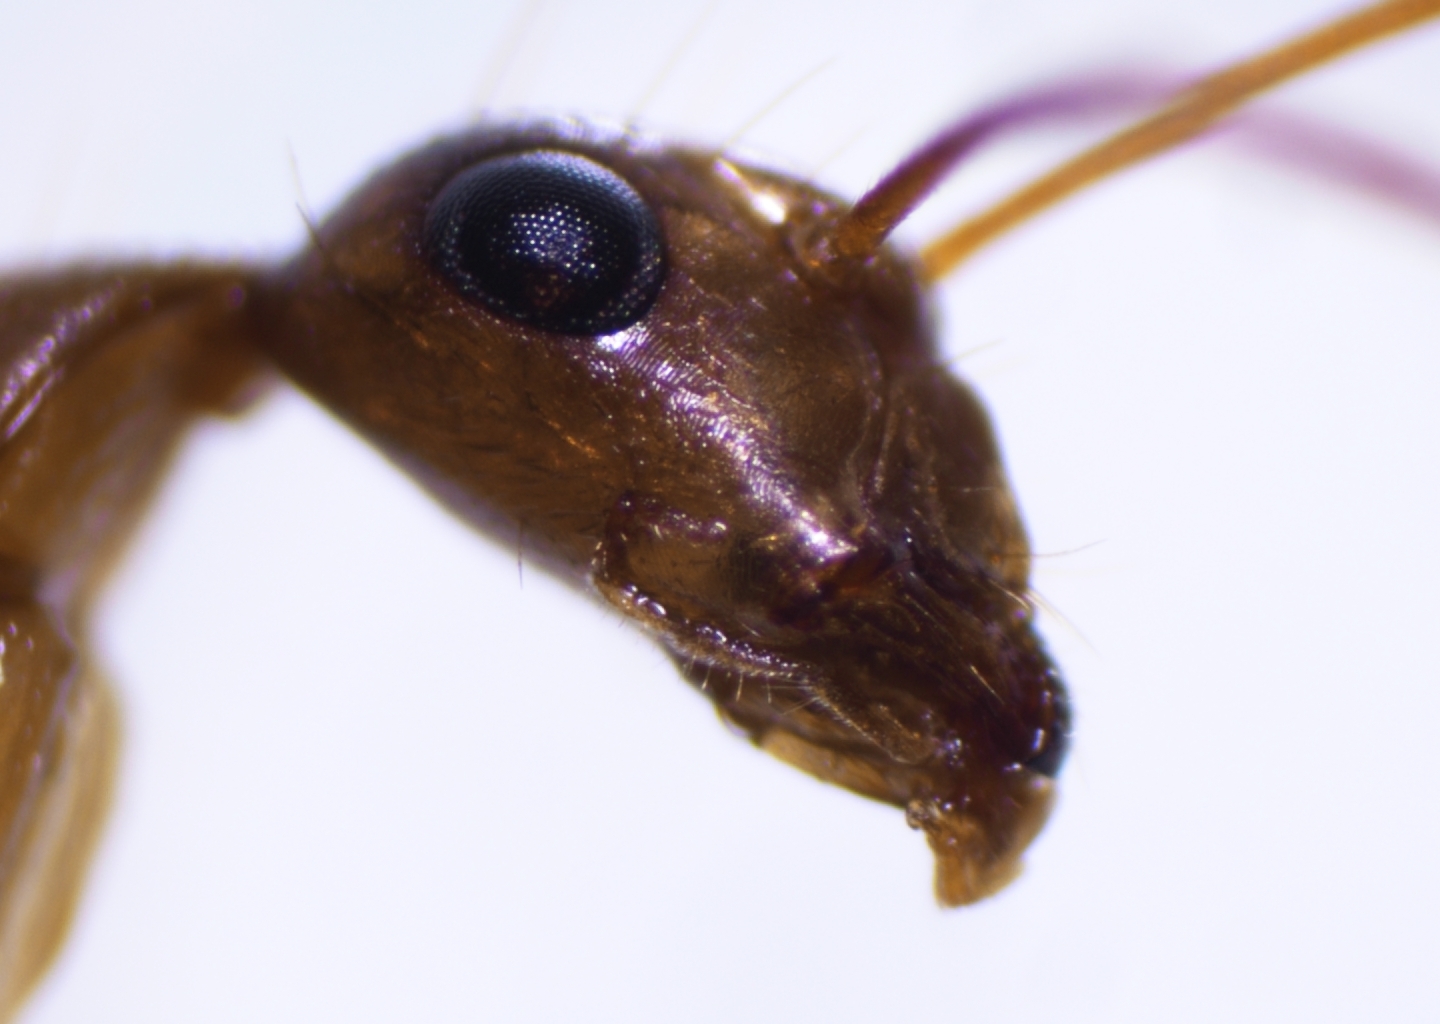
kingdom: Animalia
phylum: Arthropoda
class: Insecta
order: Hymenoptera
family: Formicidae
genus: Camponotus
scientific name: Camponotus chloroticus
